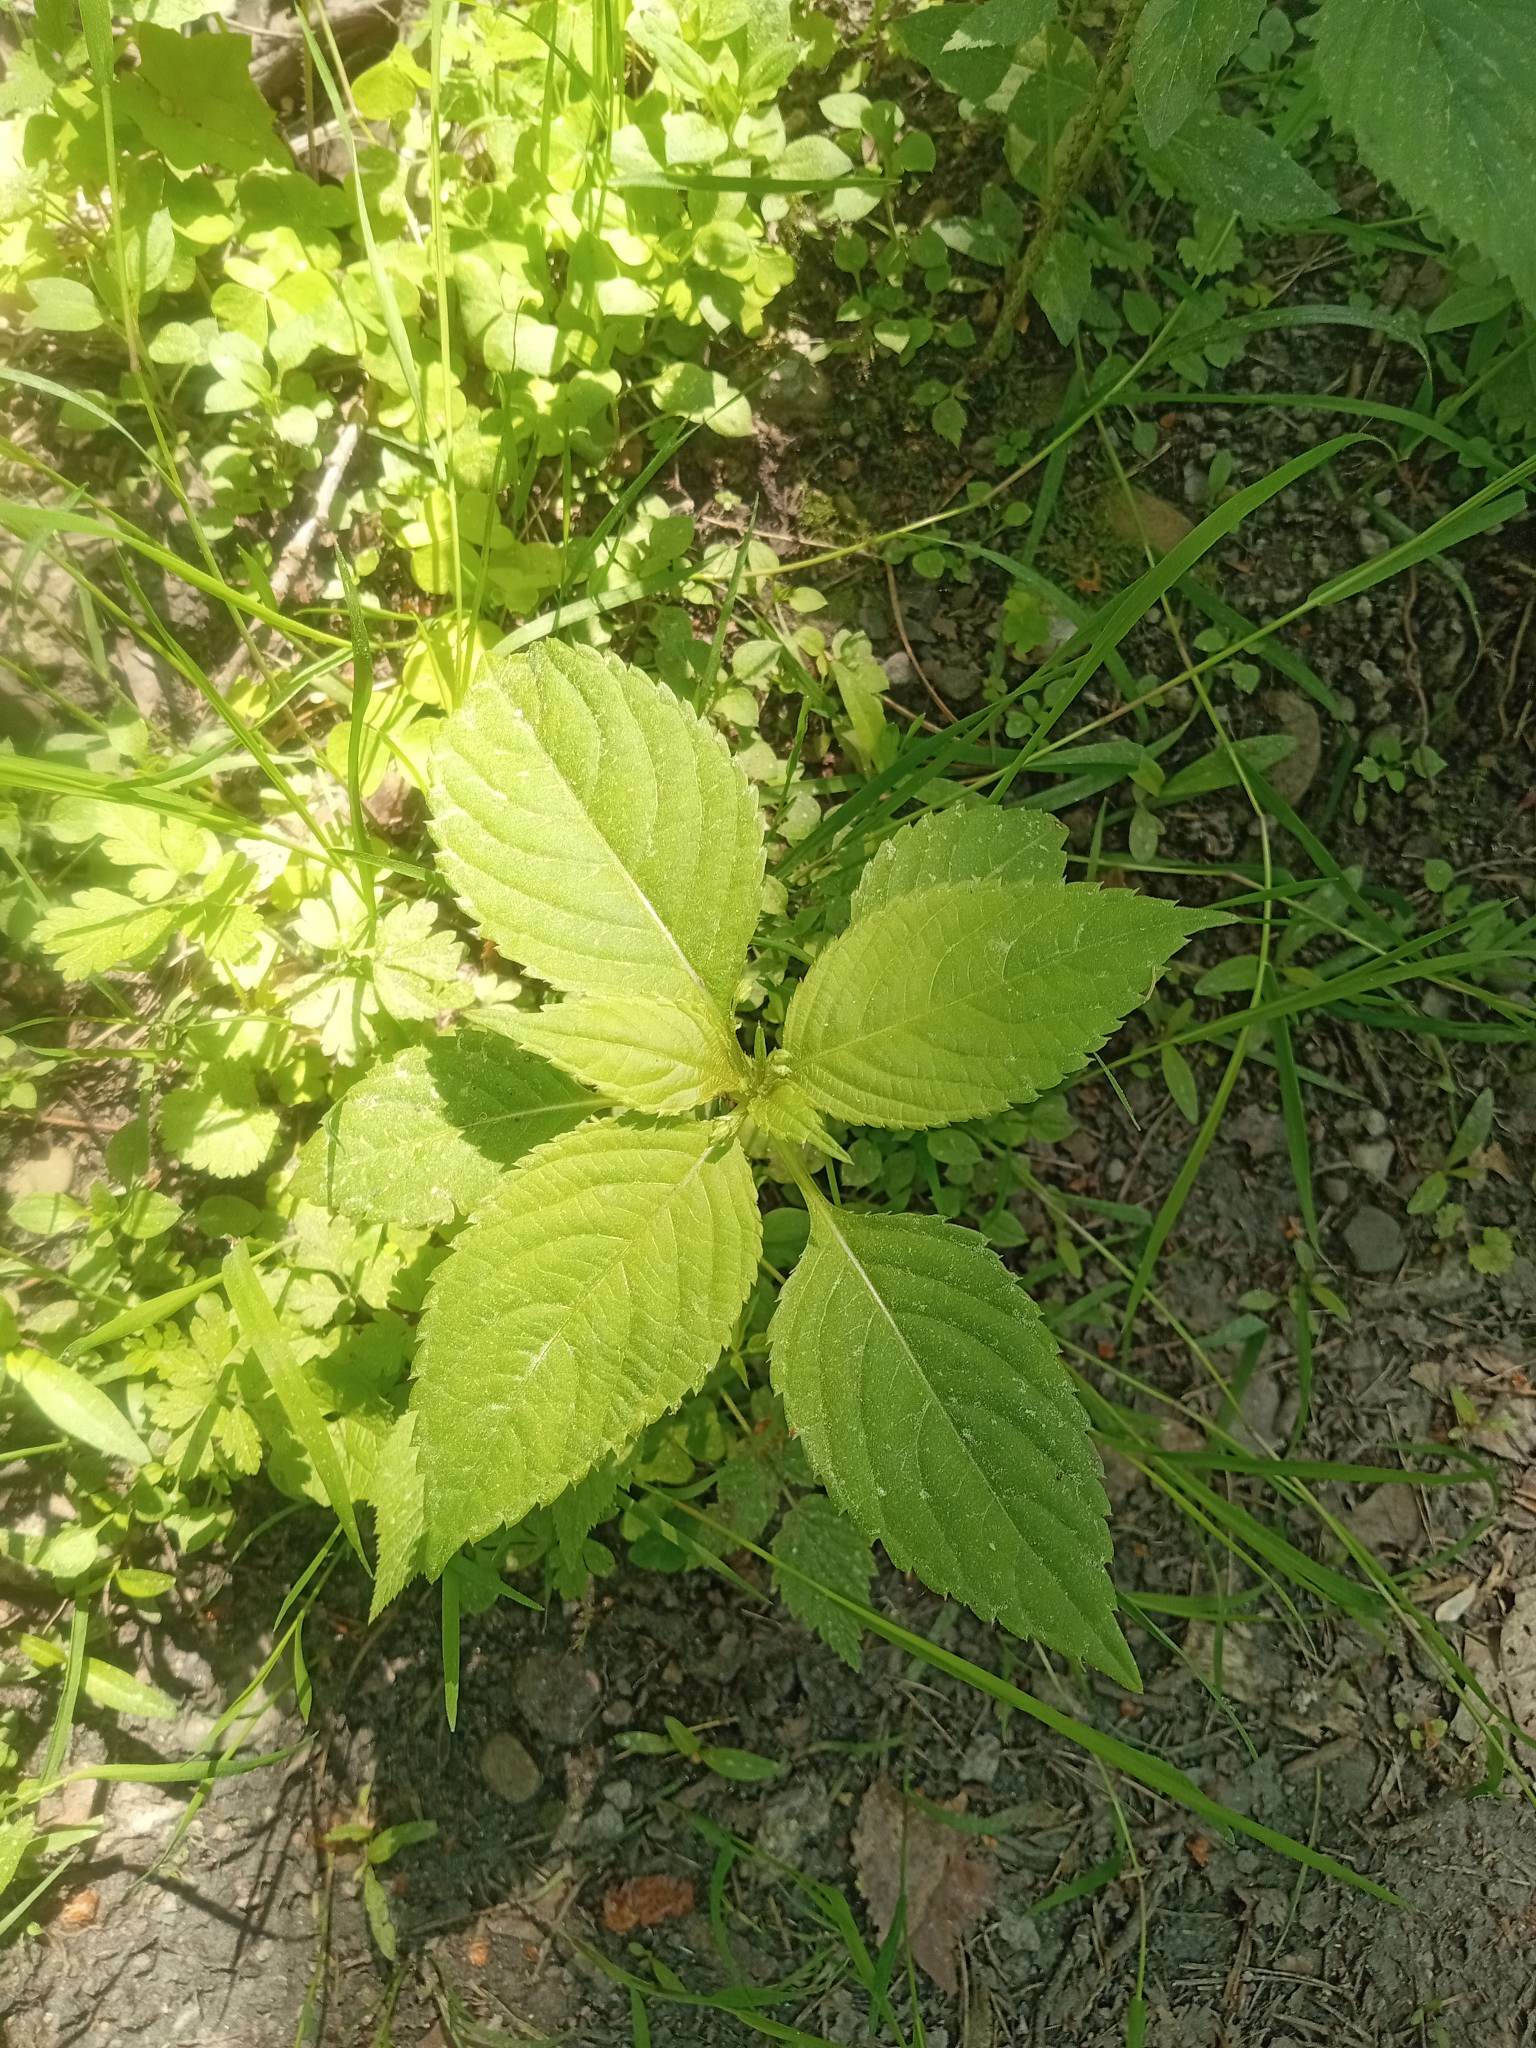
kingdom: Plantae
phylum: Tracheophyta
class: Magnoliopsida
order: Ericales
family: Balsaminaceae
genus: Impatiens
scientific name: Impatiens parviflora
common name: Small balsam
